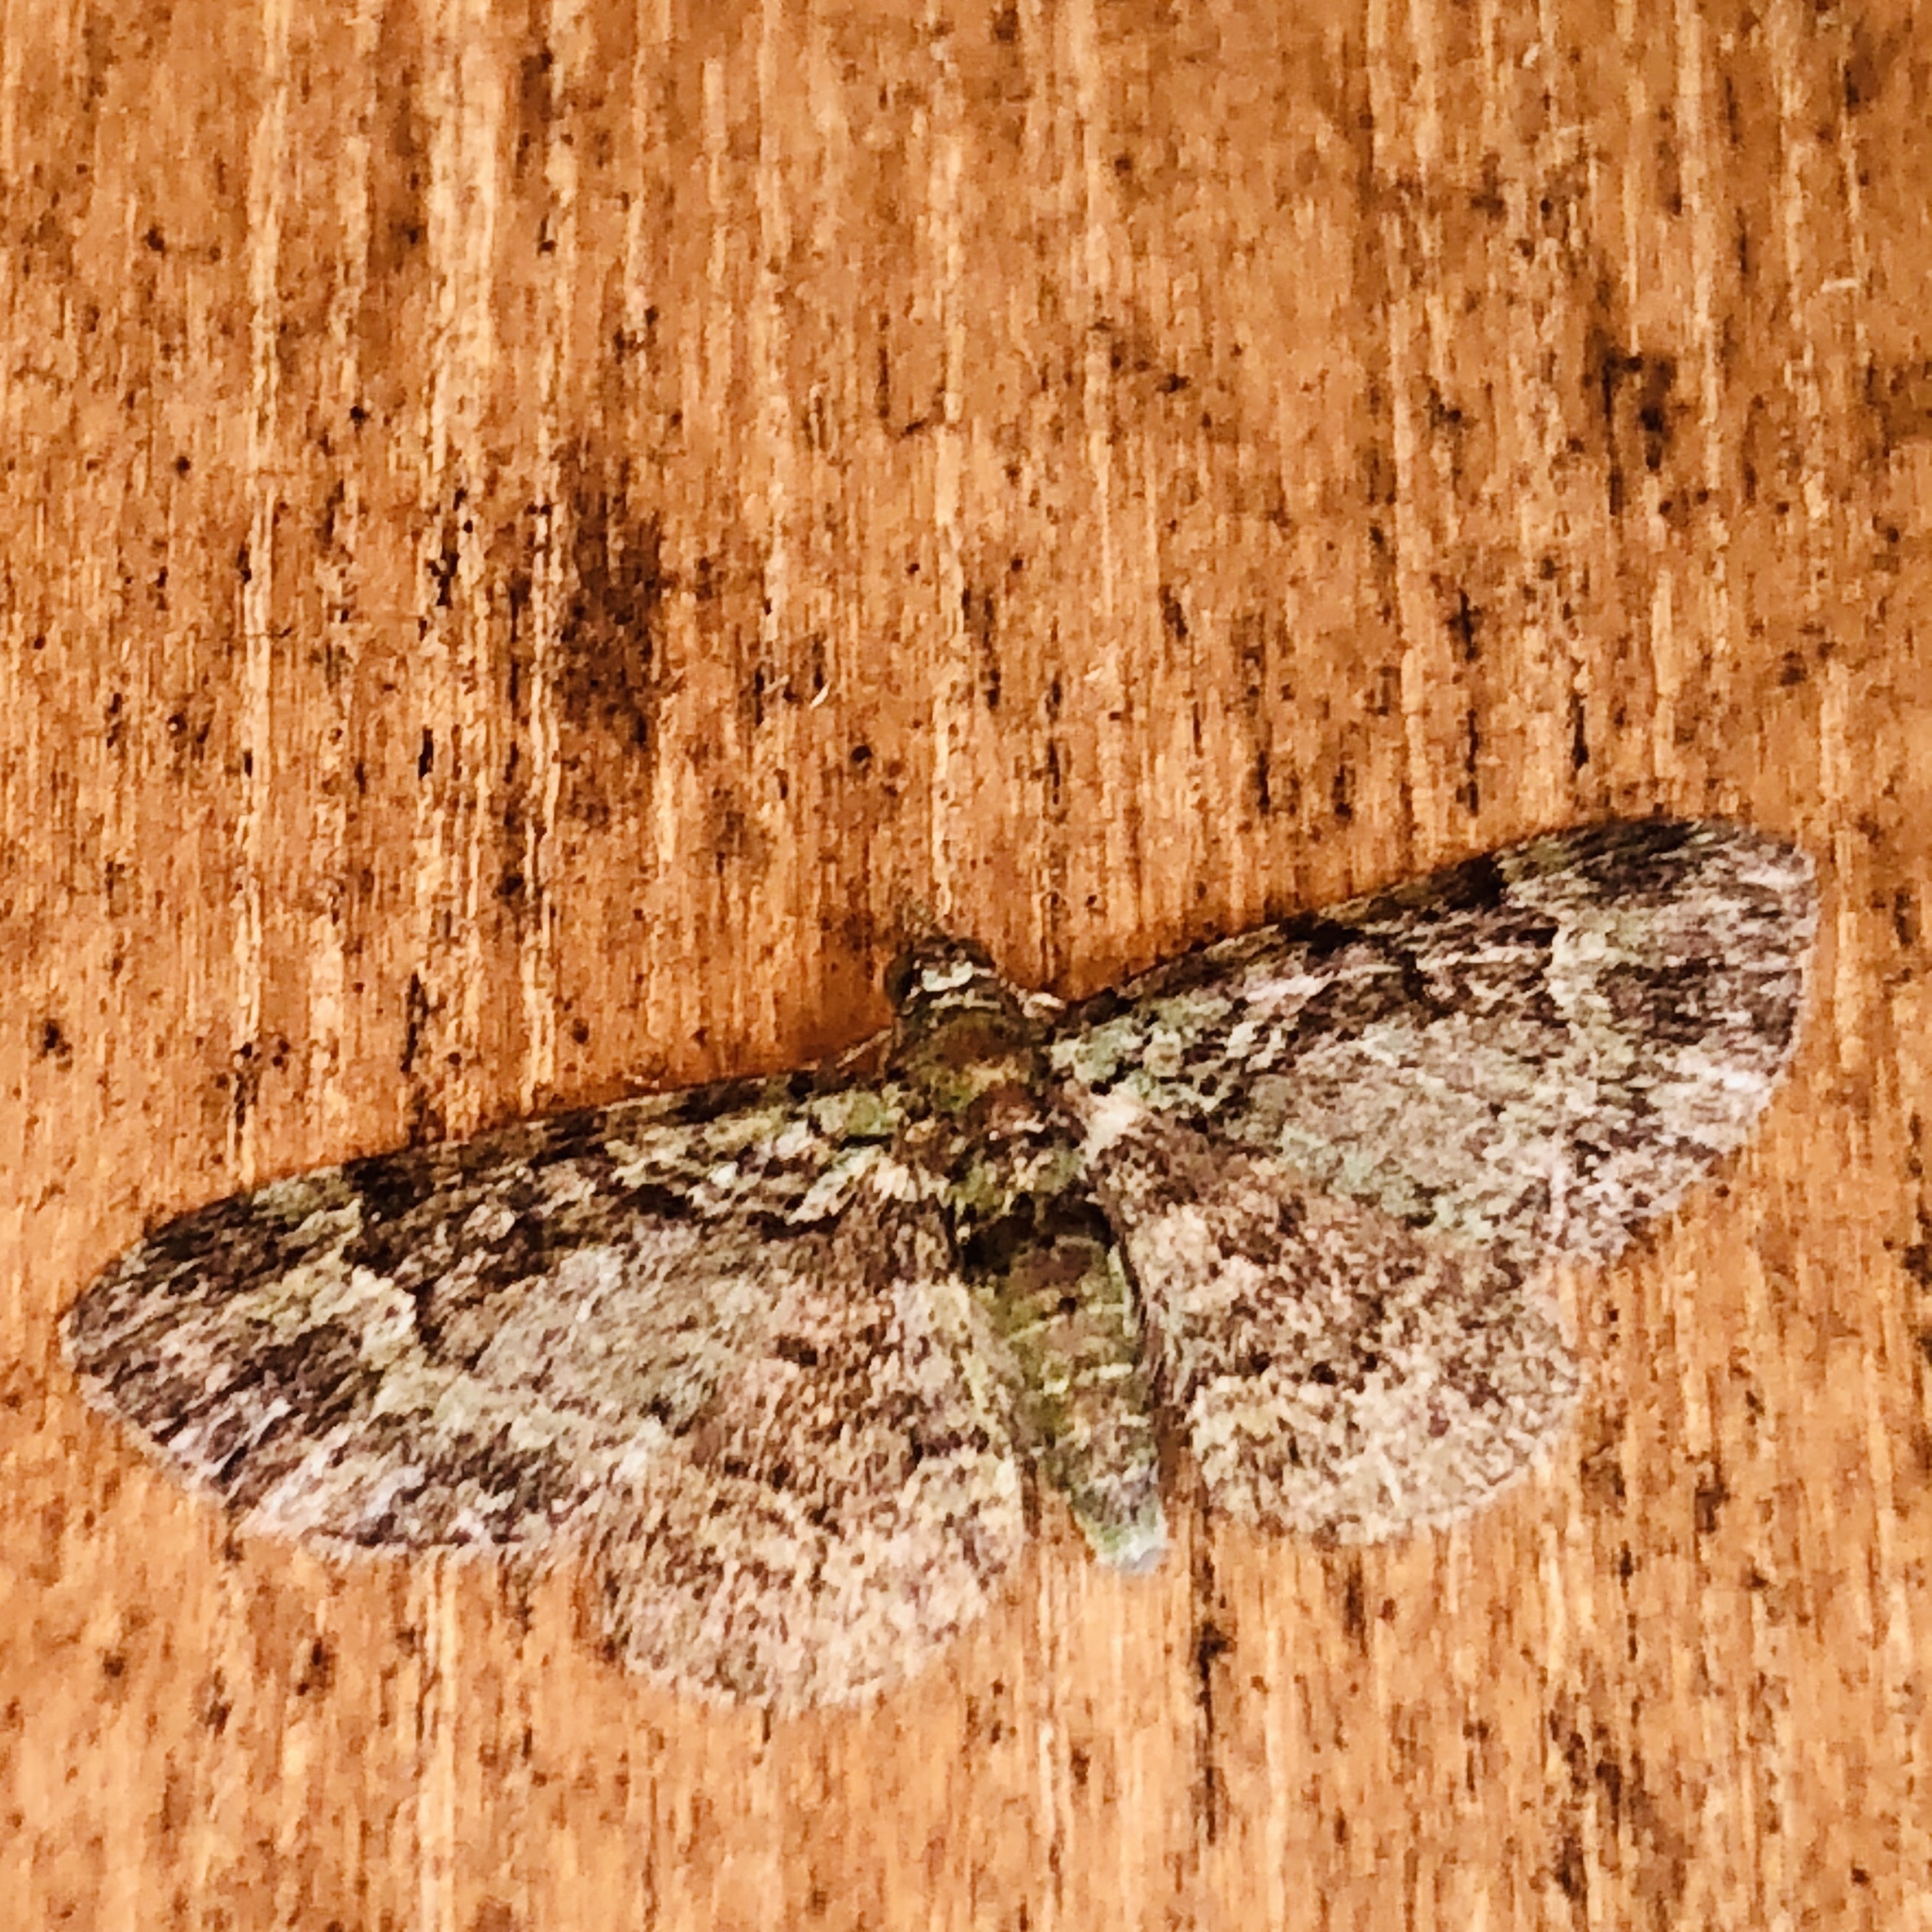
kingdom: Animalia
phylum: Arthropoda
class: Insecta
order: Lepidoptera
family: Geometridae
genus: Pasiphila
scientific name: Pasiphila rectangulata
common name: Green pug
